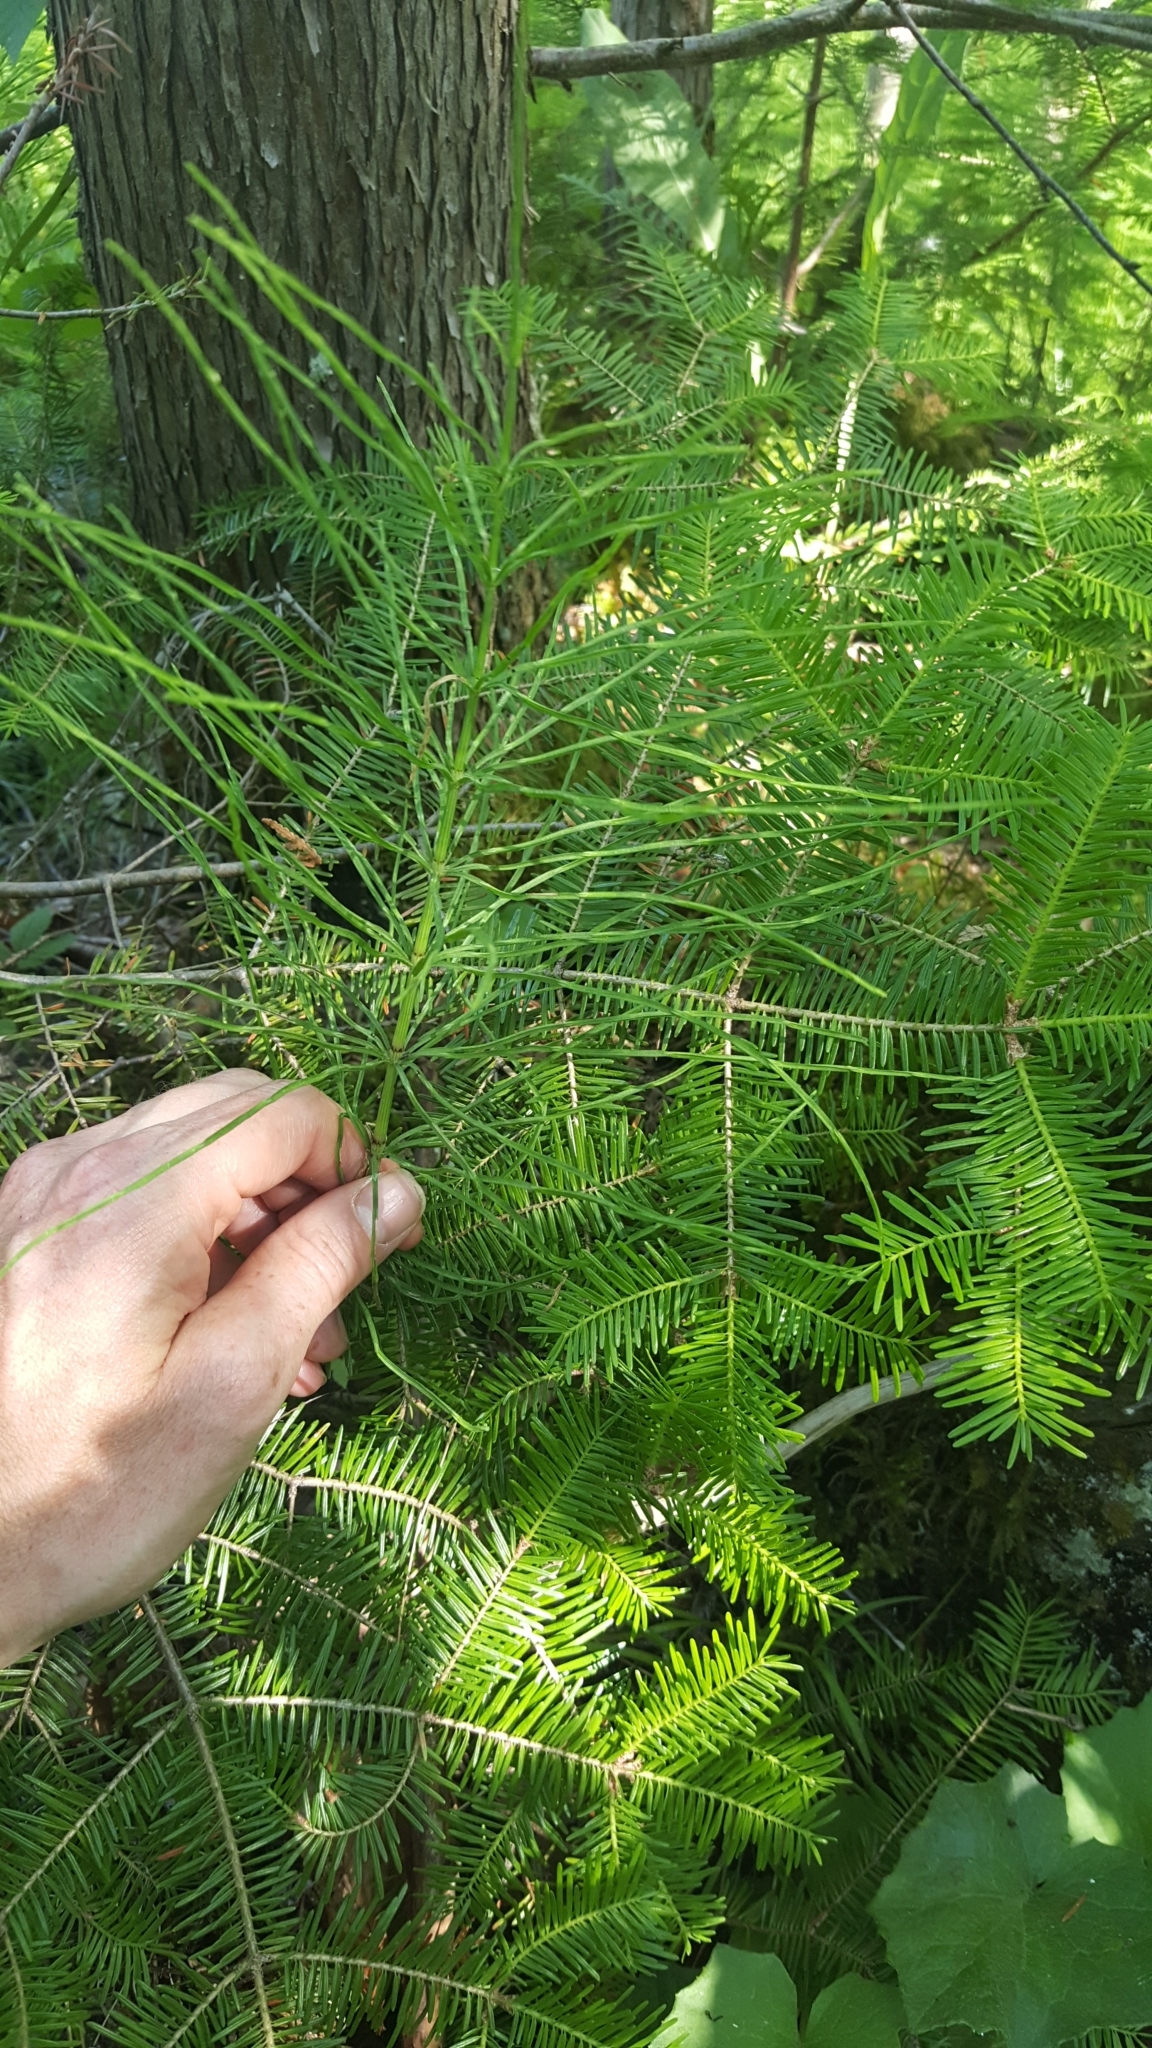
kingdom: Plantae
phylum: Tracheophyta
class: Polypodiopsida
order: Equisetales
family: Equisetaceae
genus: Equisetum
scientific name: Equisetum arvense
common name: Field horsetail
